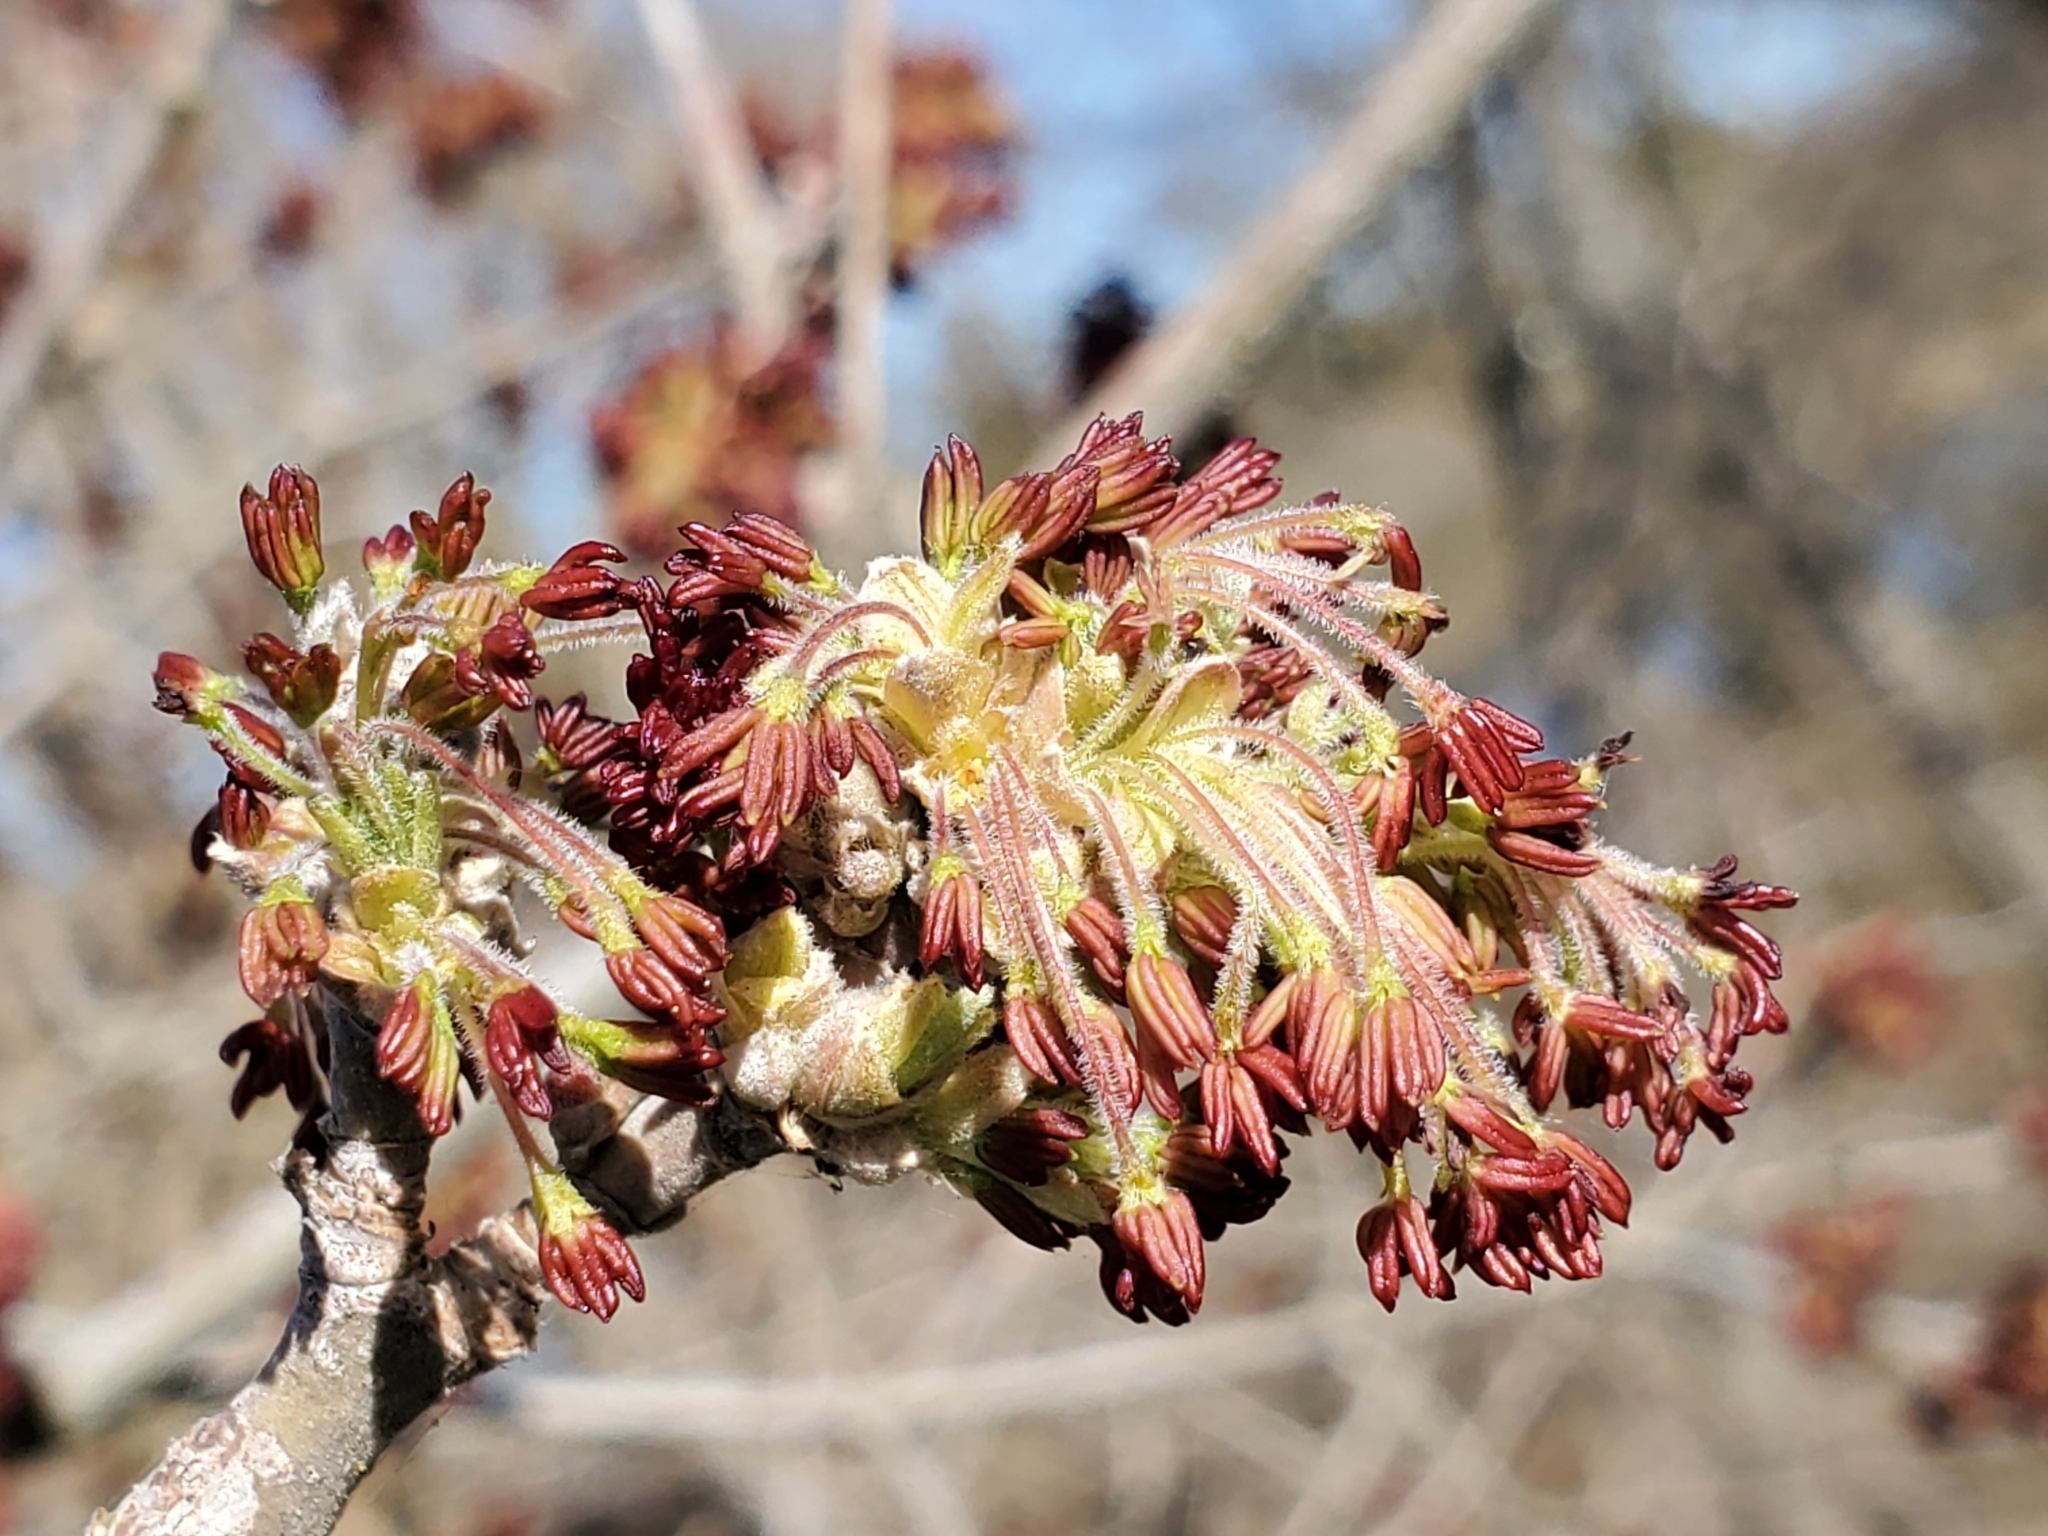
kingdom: Plantae
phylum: Tracheophyta
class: Magnoliopsida
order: Sapindales
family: Sapindaceae
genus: Acer
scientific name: Acer negundo
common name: Ashleaf maple
